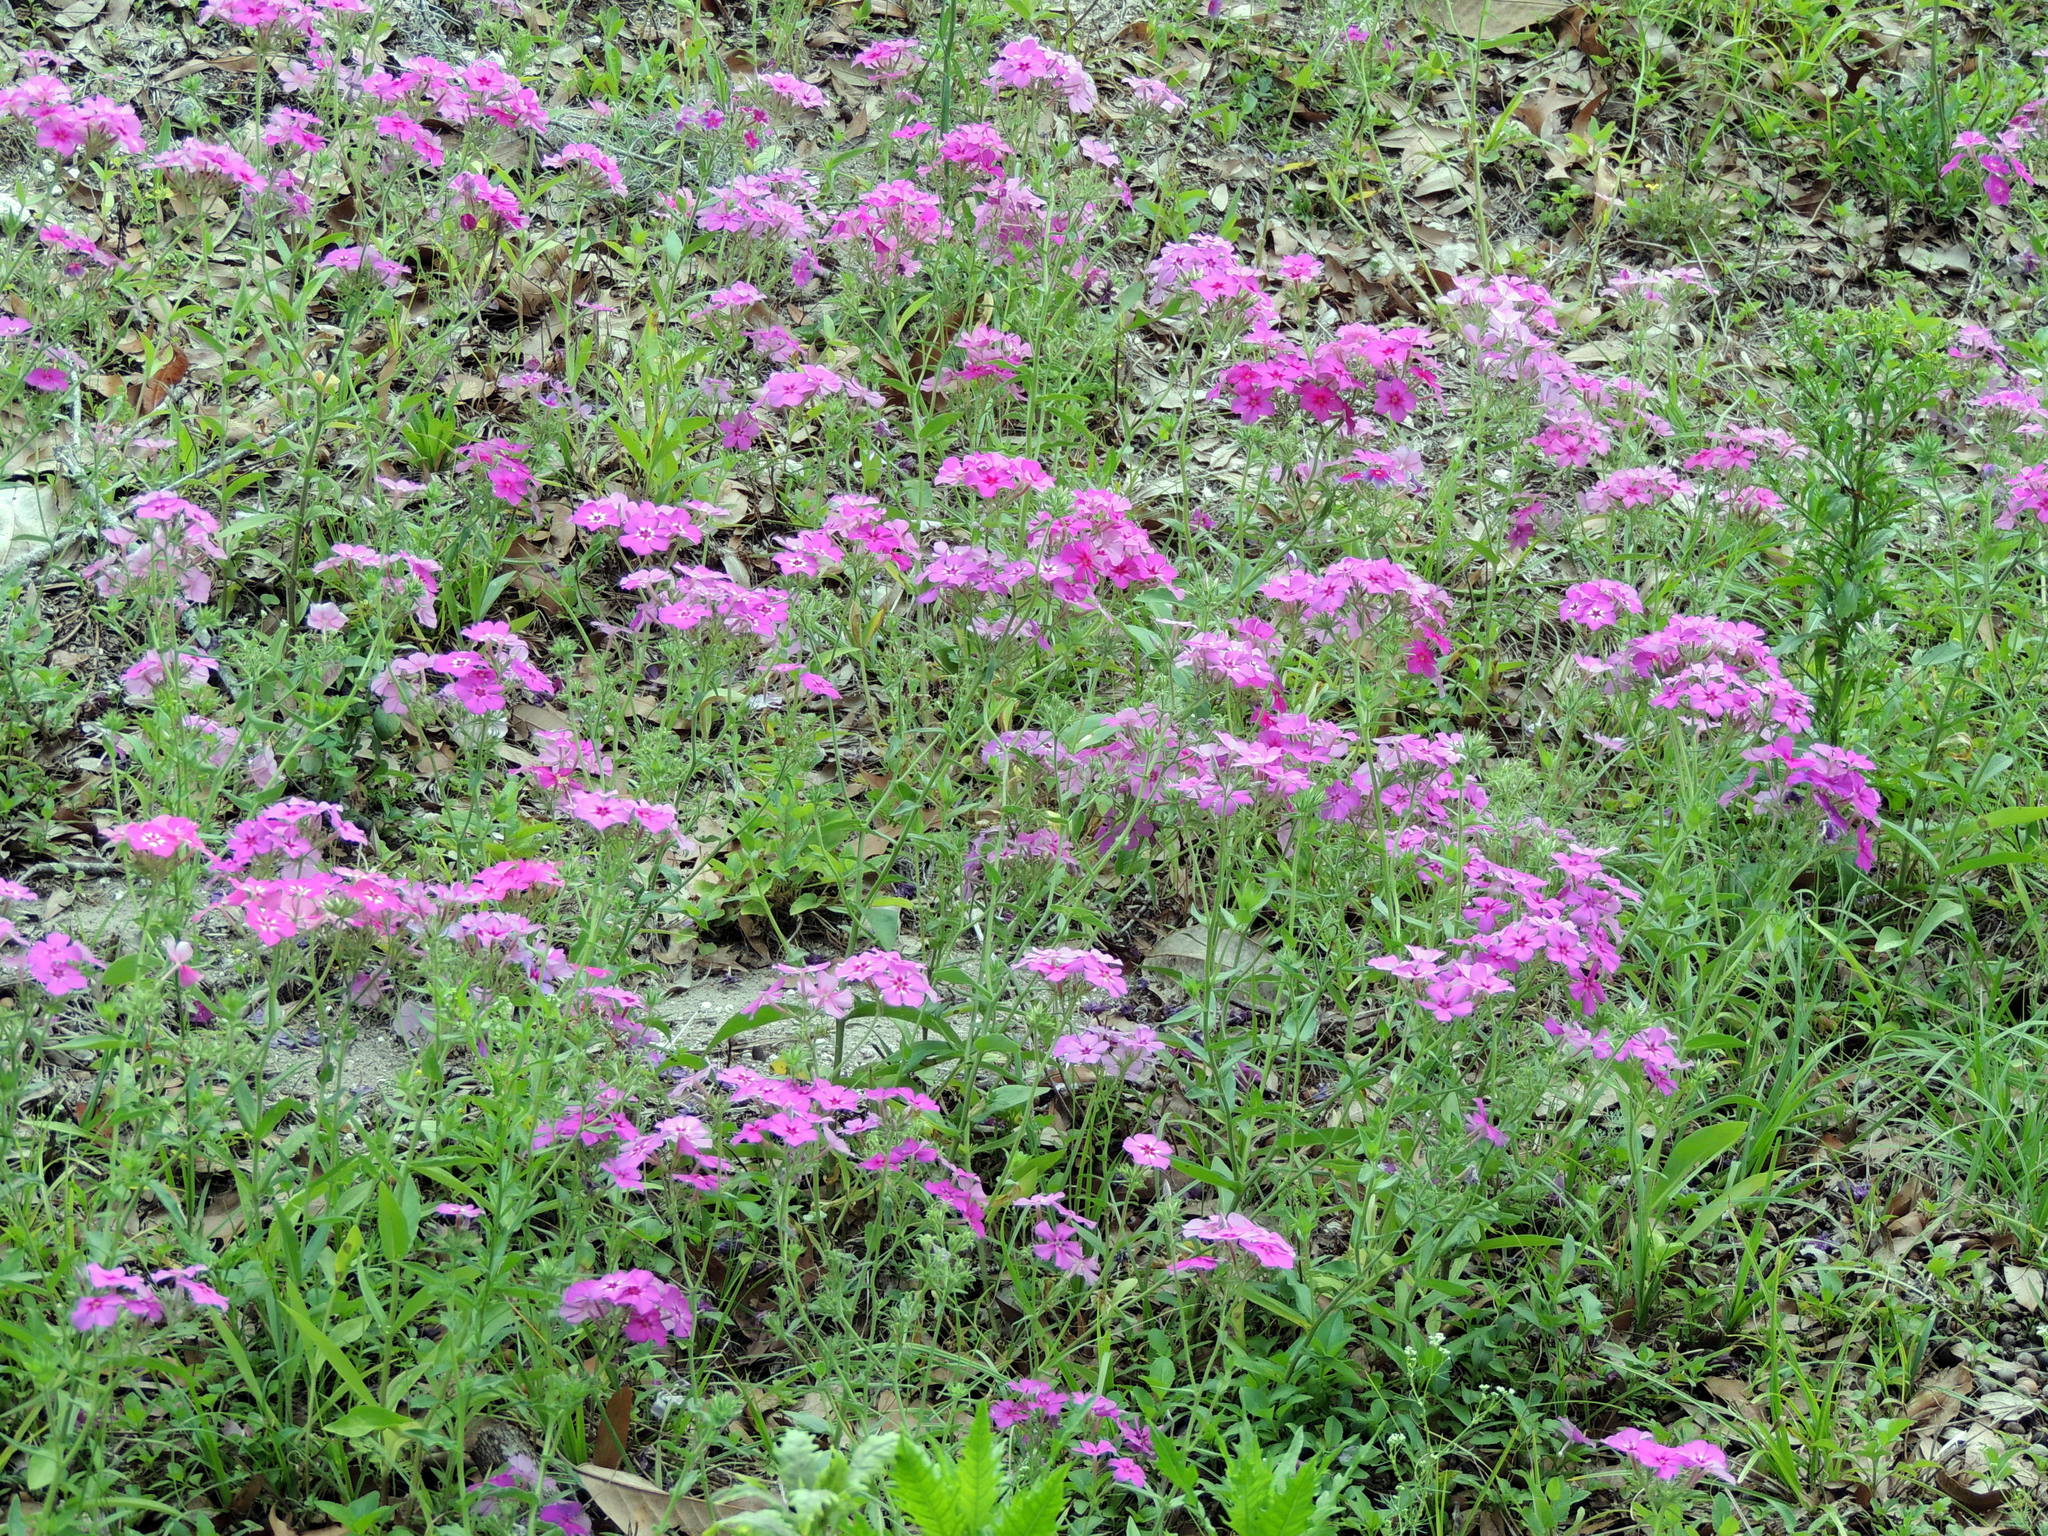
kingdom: Plantae
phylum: Tracheophyta
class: Magnoliopsida
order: Ericales
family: Polemoniaceae
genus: Phlox
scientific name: Phlox drummondii
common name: Drummond's phlox
